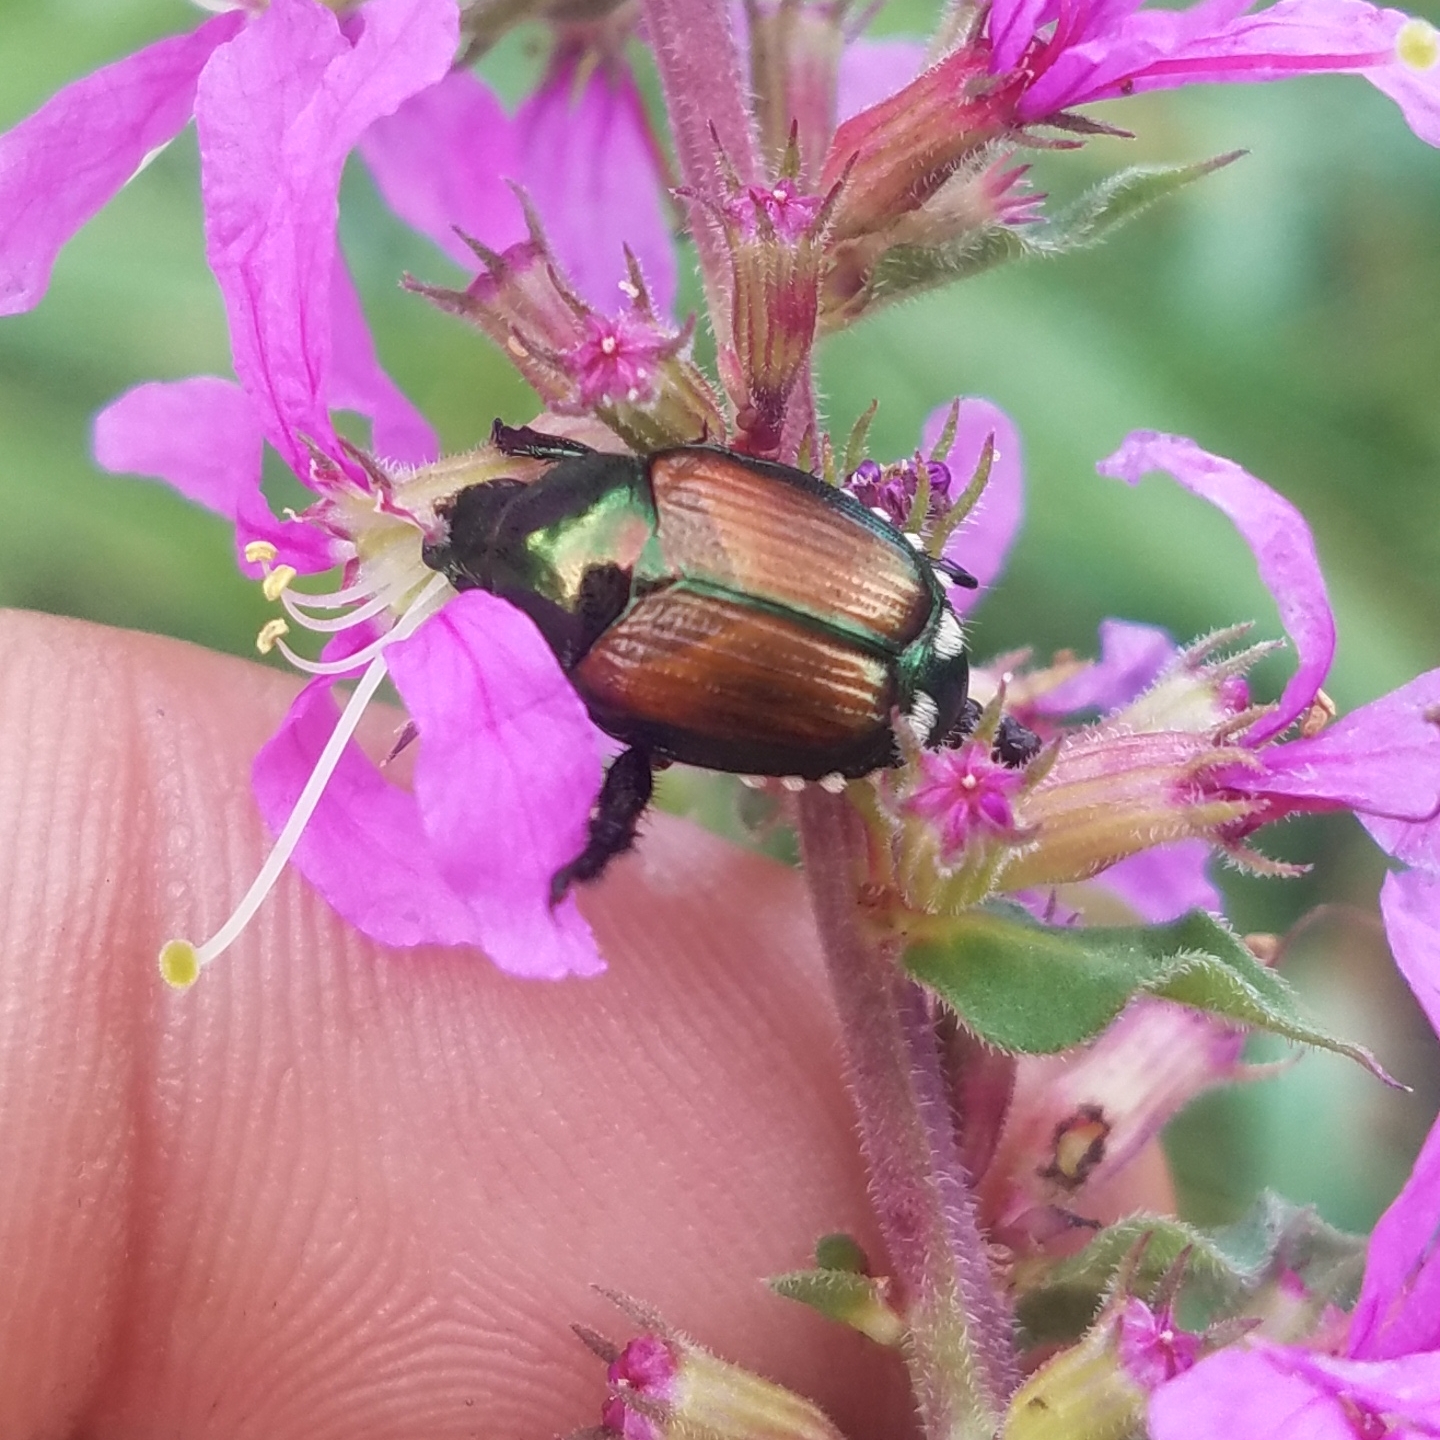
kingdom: Animalia
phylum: Arthropoda
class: Insecta
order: Coleoptera
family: Scarabaeidae
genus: Popillia
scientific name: Popillia japonica
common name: Japanese beetle
